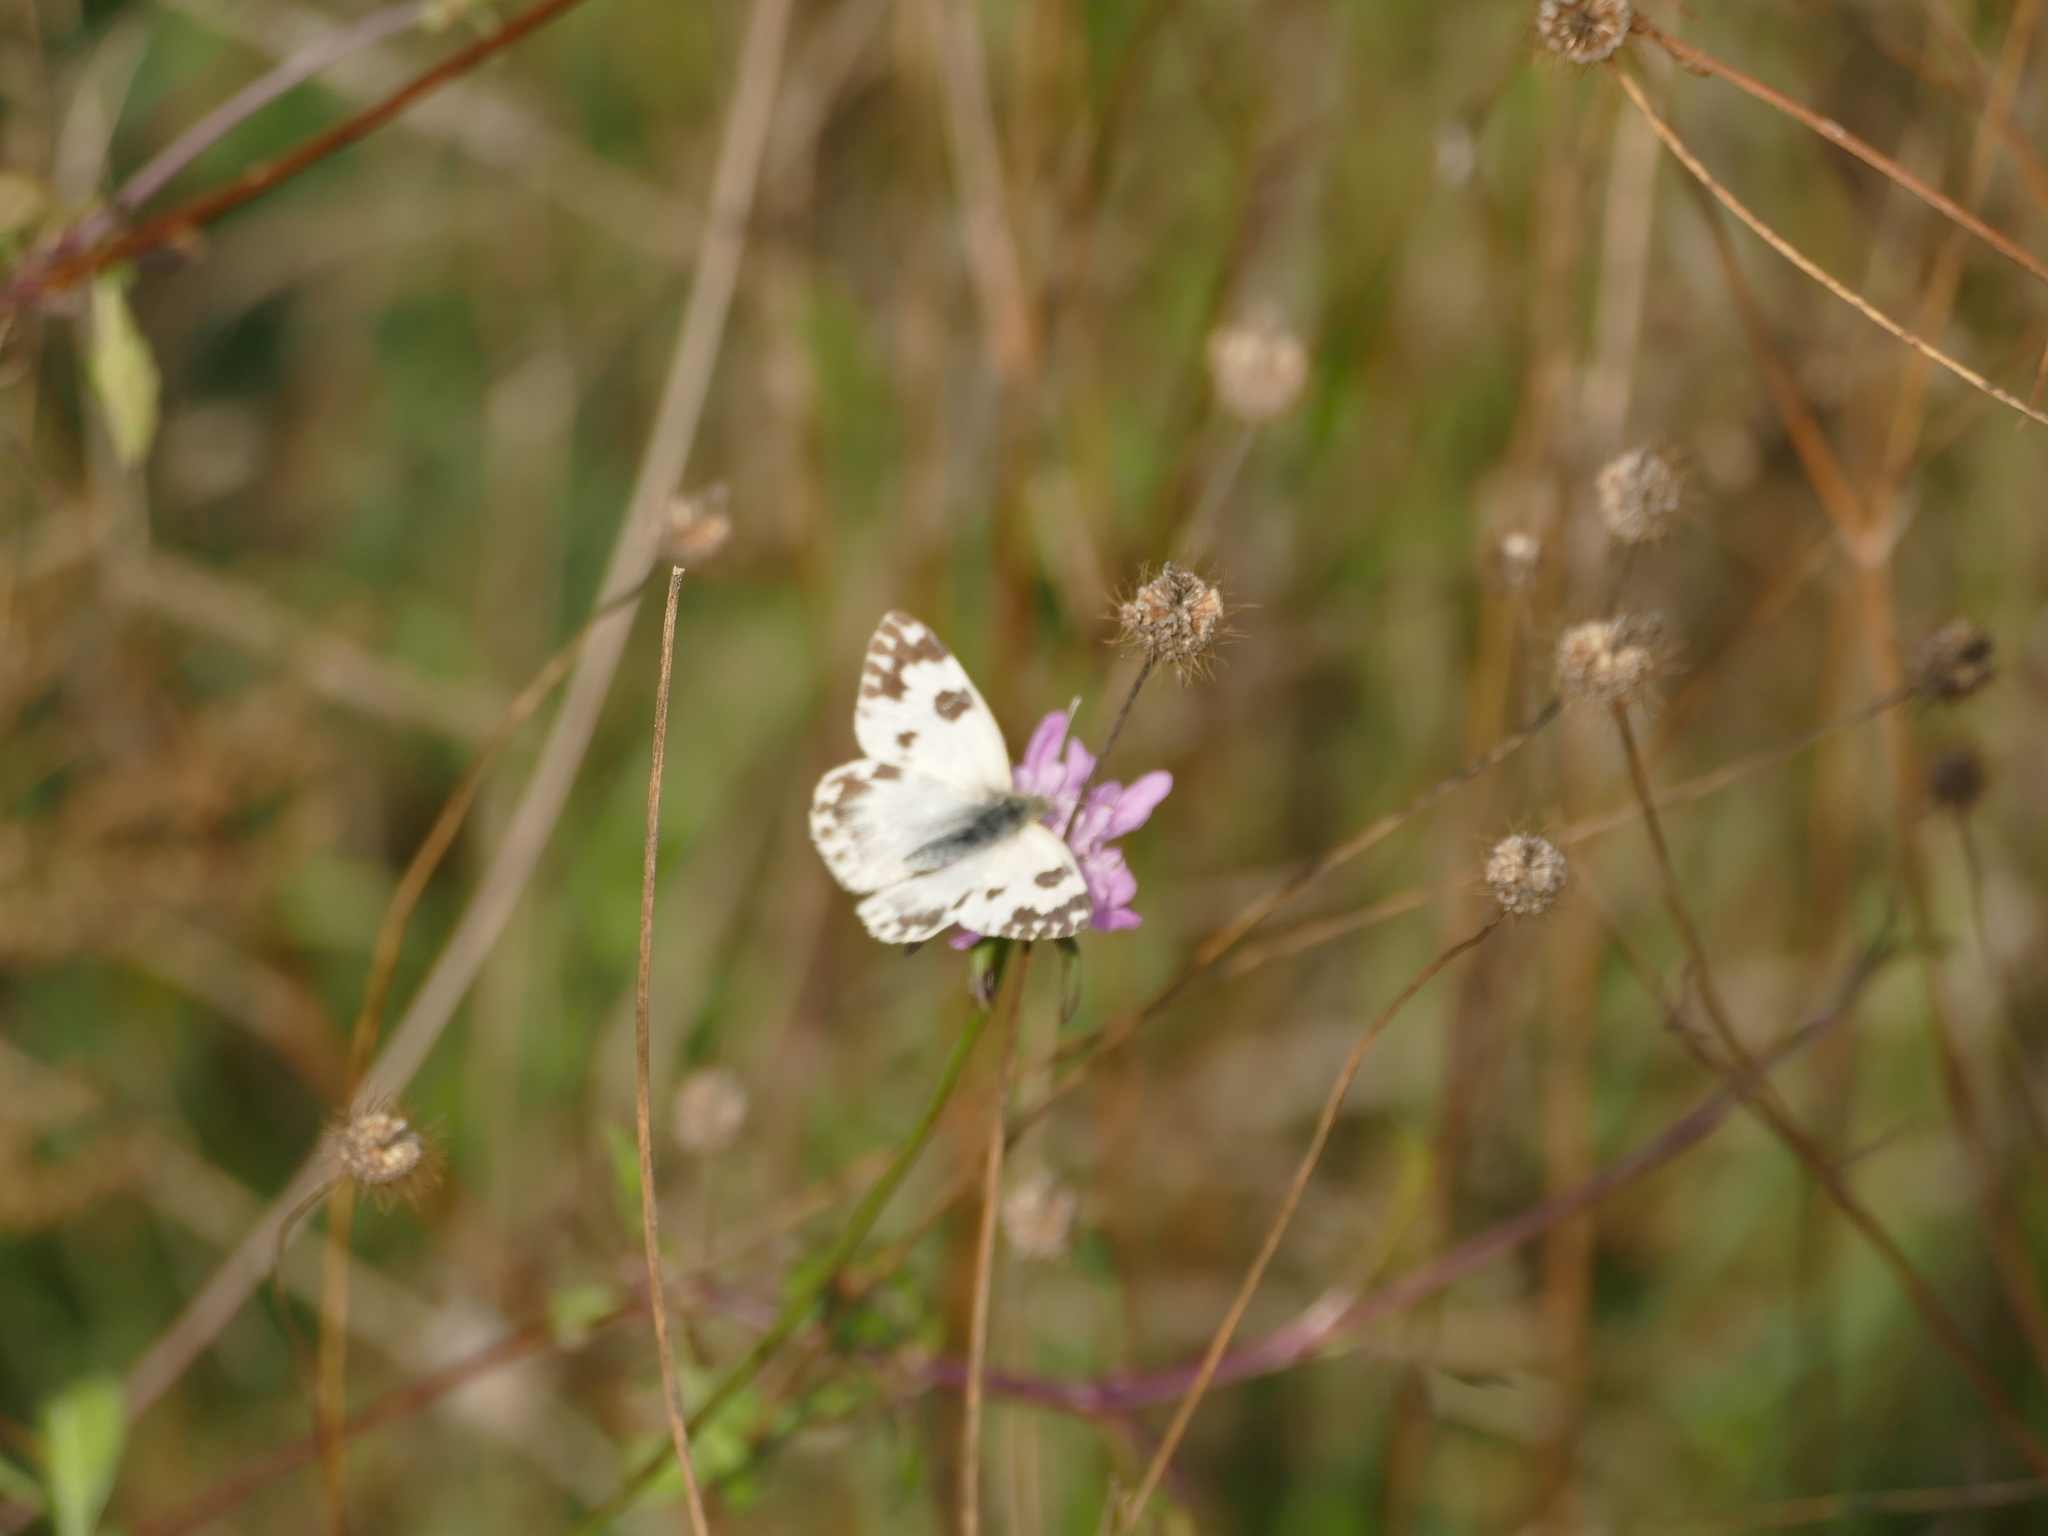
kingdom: Animalia
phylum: Arthropoda
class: Insecta
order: Lepidoptera
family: Pieridae
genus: Pontia
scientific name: Pontia daplidice
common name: Bath white
